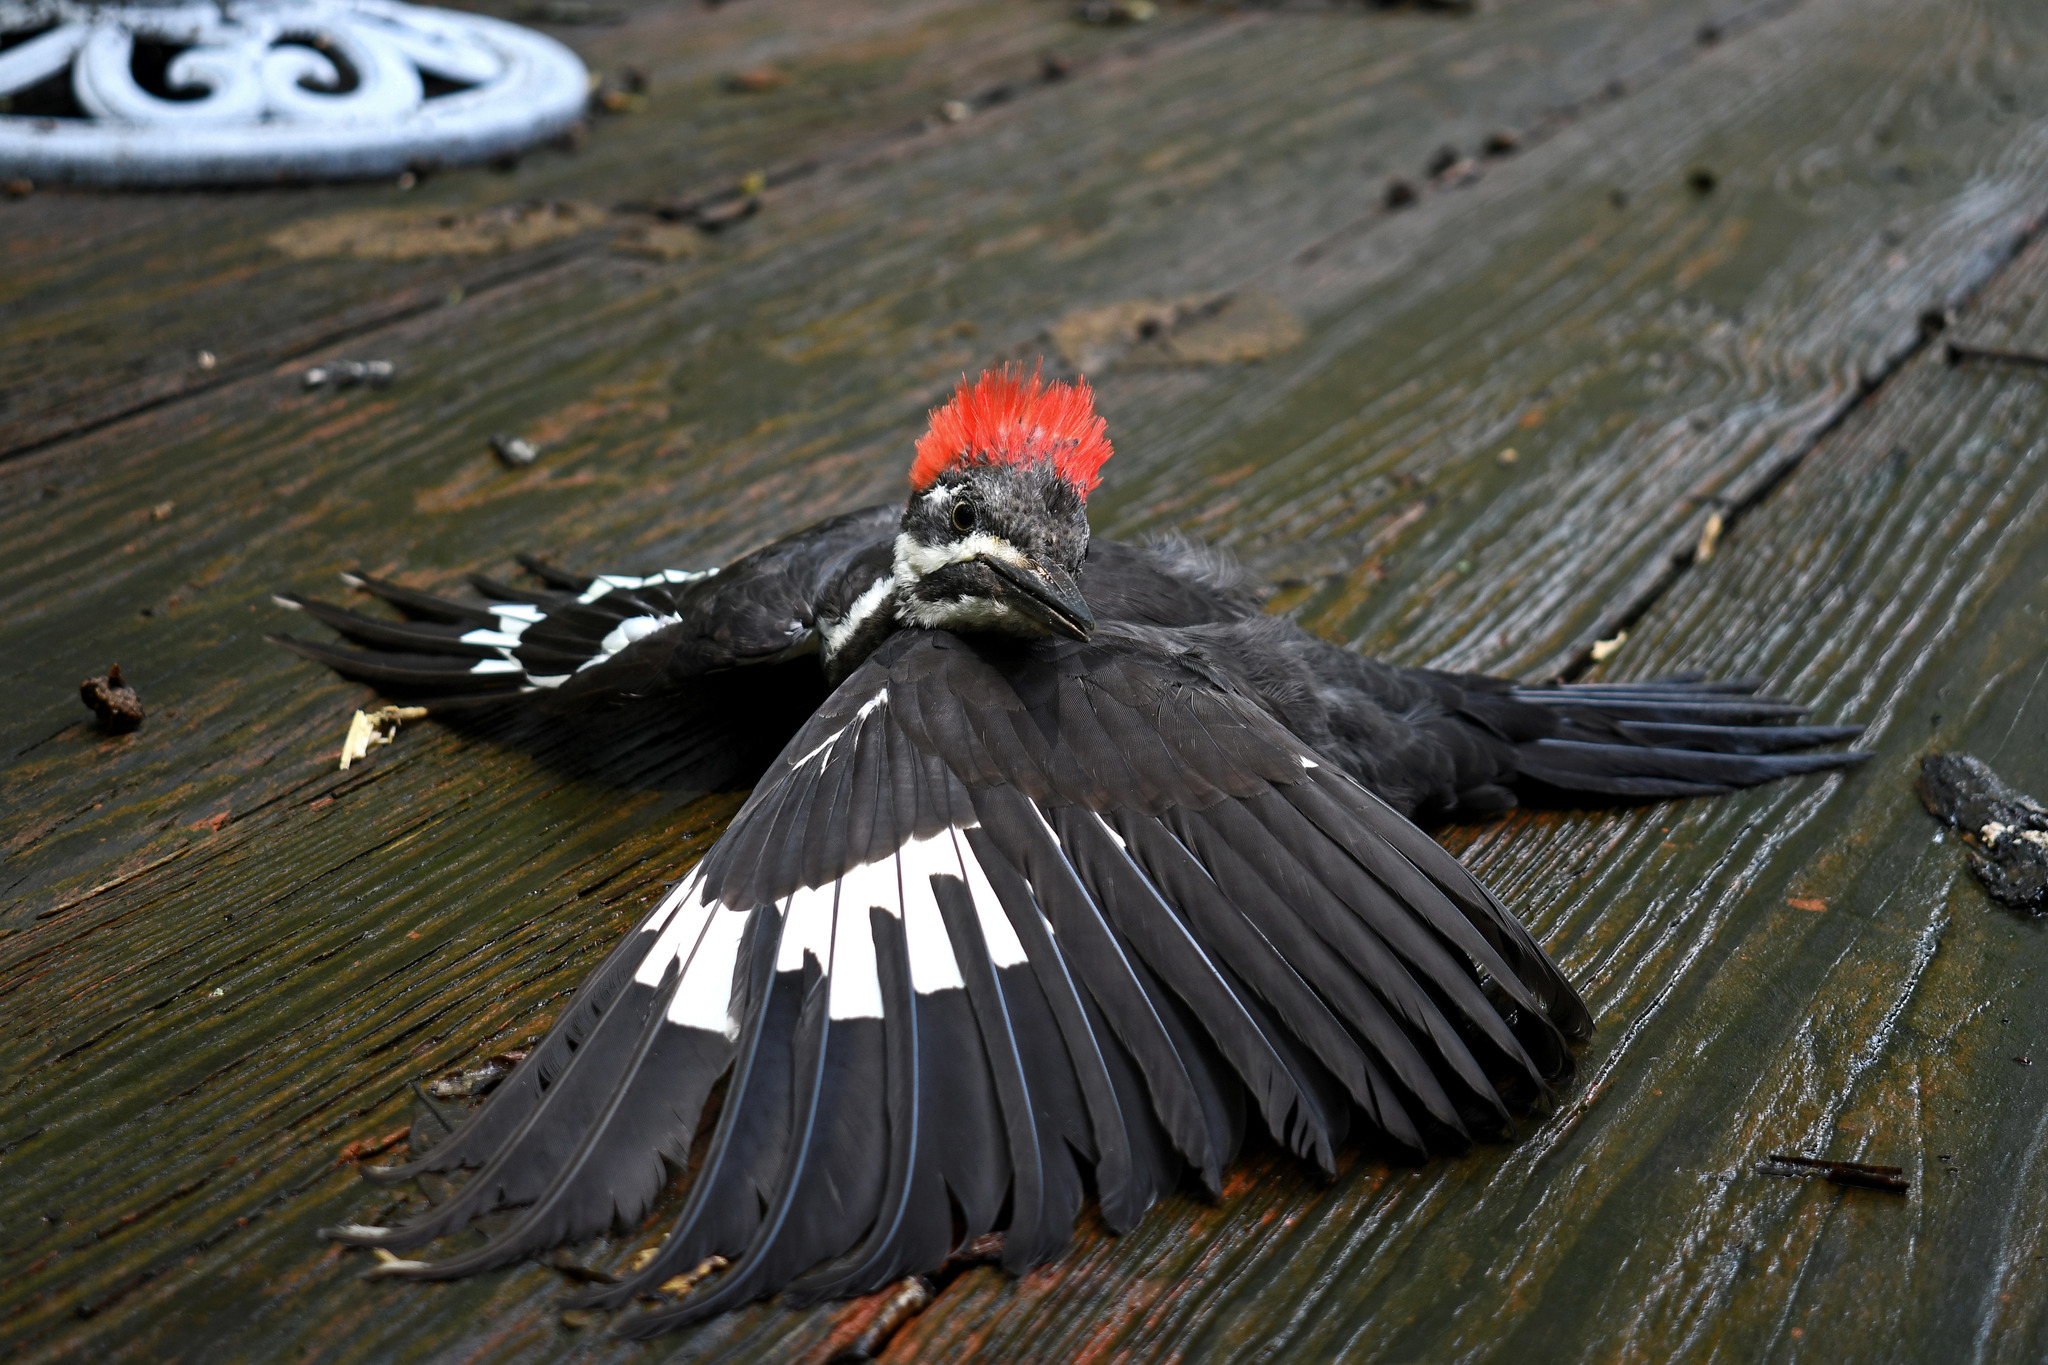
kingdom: Animalia
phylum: Chordata
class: Aves
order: Piciformes
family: Picidae
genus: Dryocopus
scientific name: Dryocopus pileatus
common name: Pileated woodpecker
